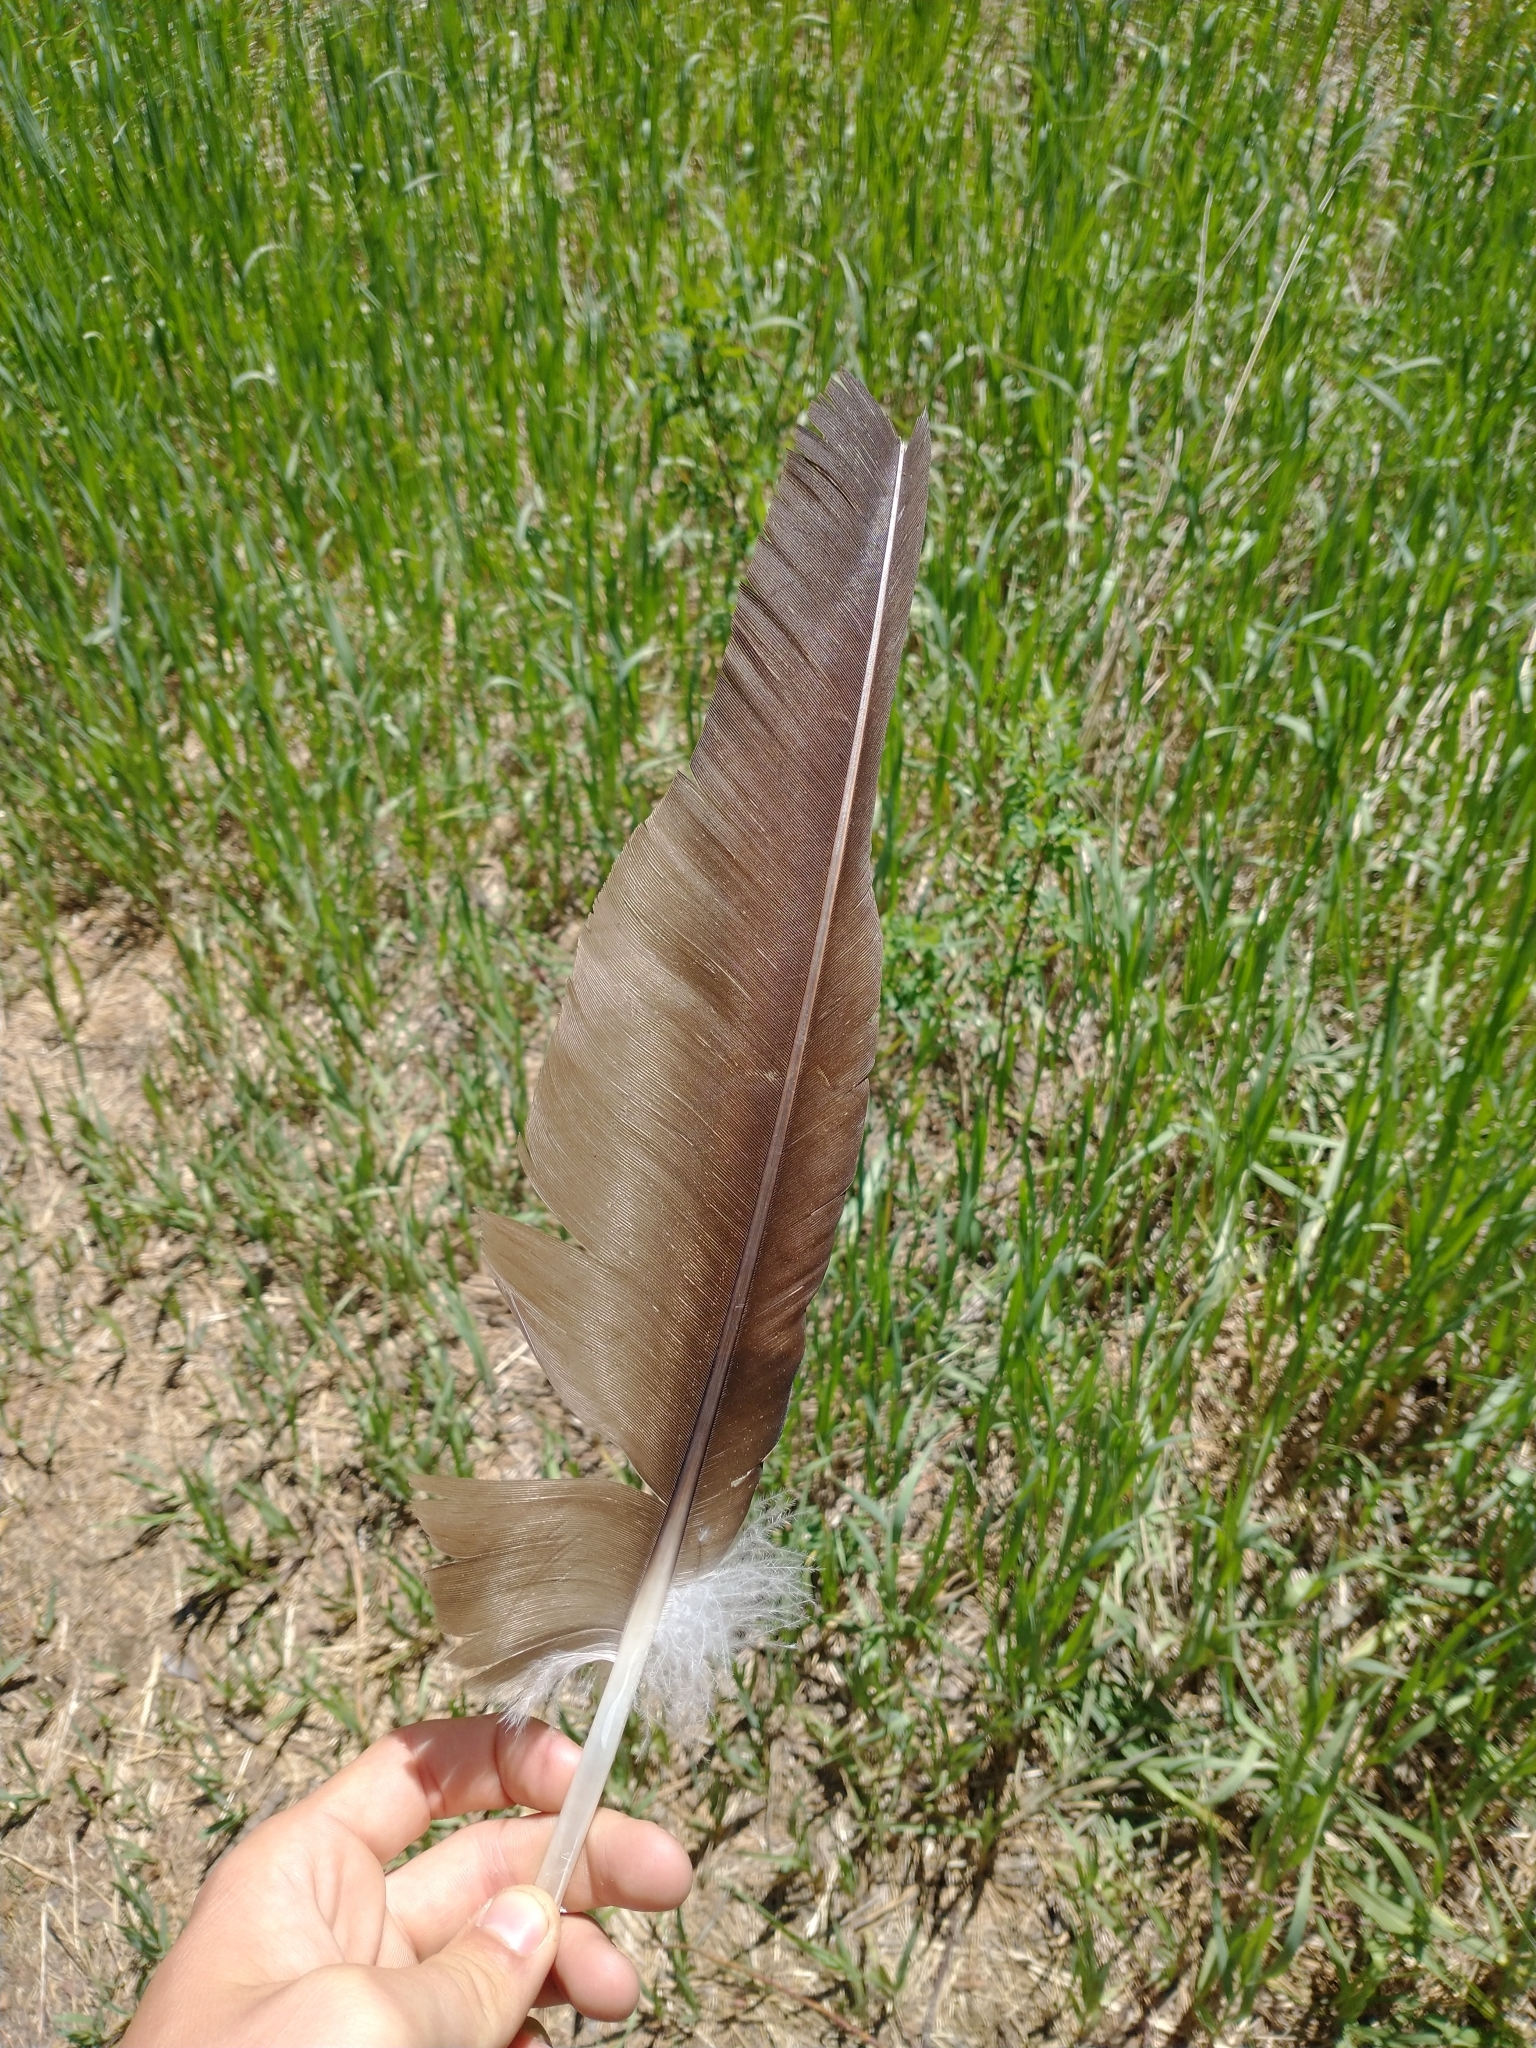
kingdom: Animalia
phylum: Chordata
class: Aves
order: Accipitriformes
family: Cathartidae
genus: Cathartes
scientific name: Cathartes aura
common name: Turkey vulture
